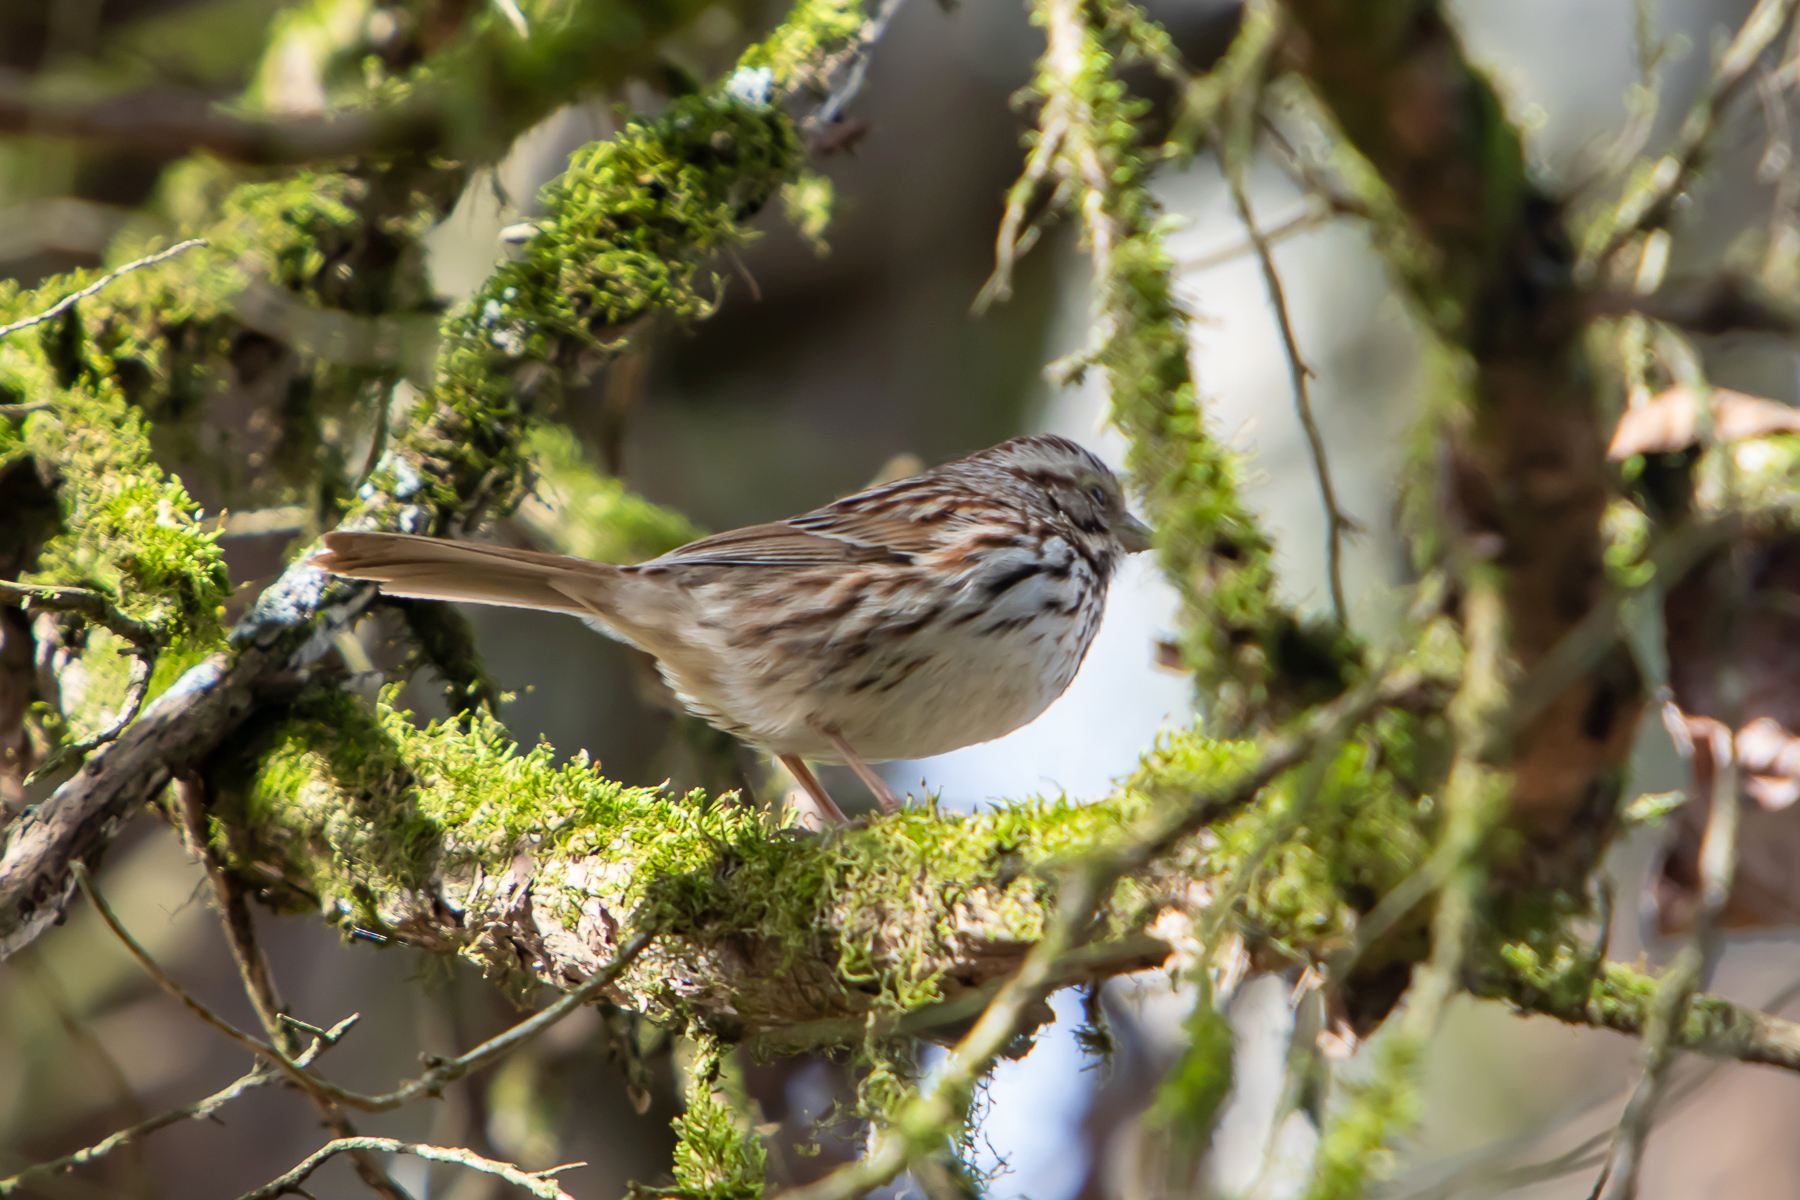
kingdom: Animalia
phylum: Chordata
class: Aves
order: Passeriformes
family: Passerellidae
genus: Melospiza
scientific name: Melospiza melodia
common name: Song sparrow
